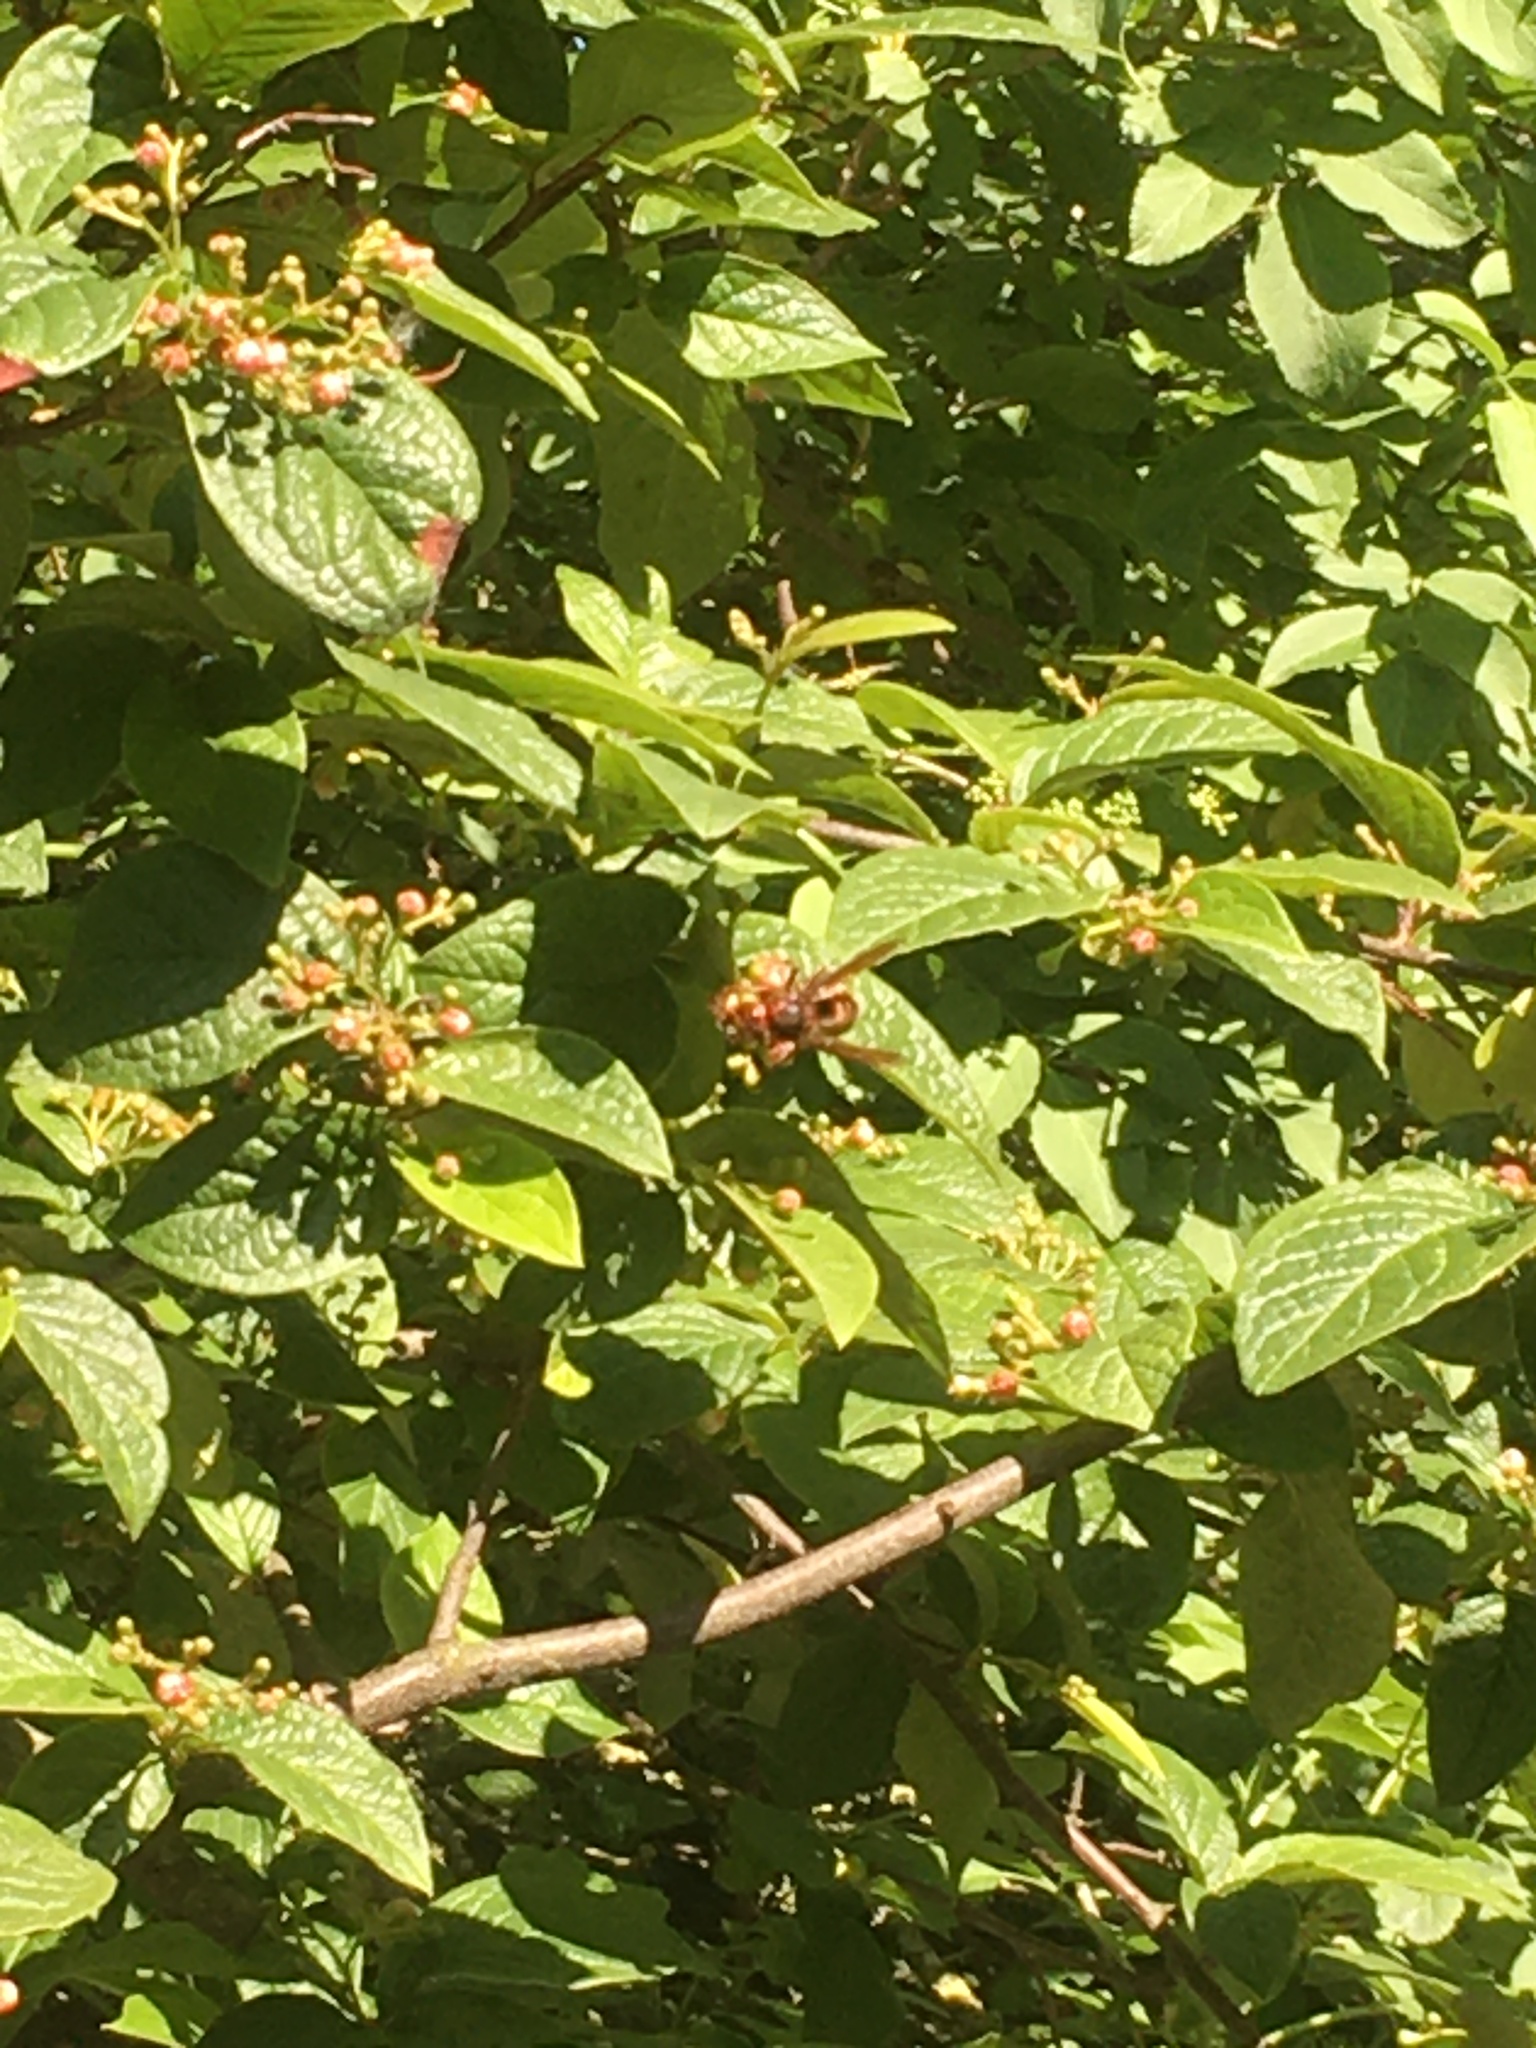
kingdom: Animalia
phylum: Arthropoda
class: Insecta
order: Hymenoptera
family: Vespidae
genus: Vespa
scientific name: Vespa crabro
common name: Hornet
